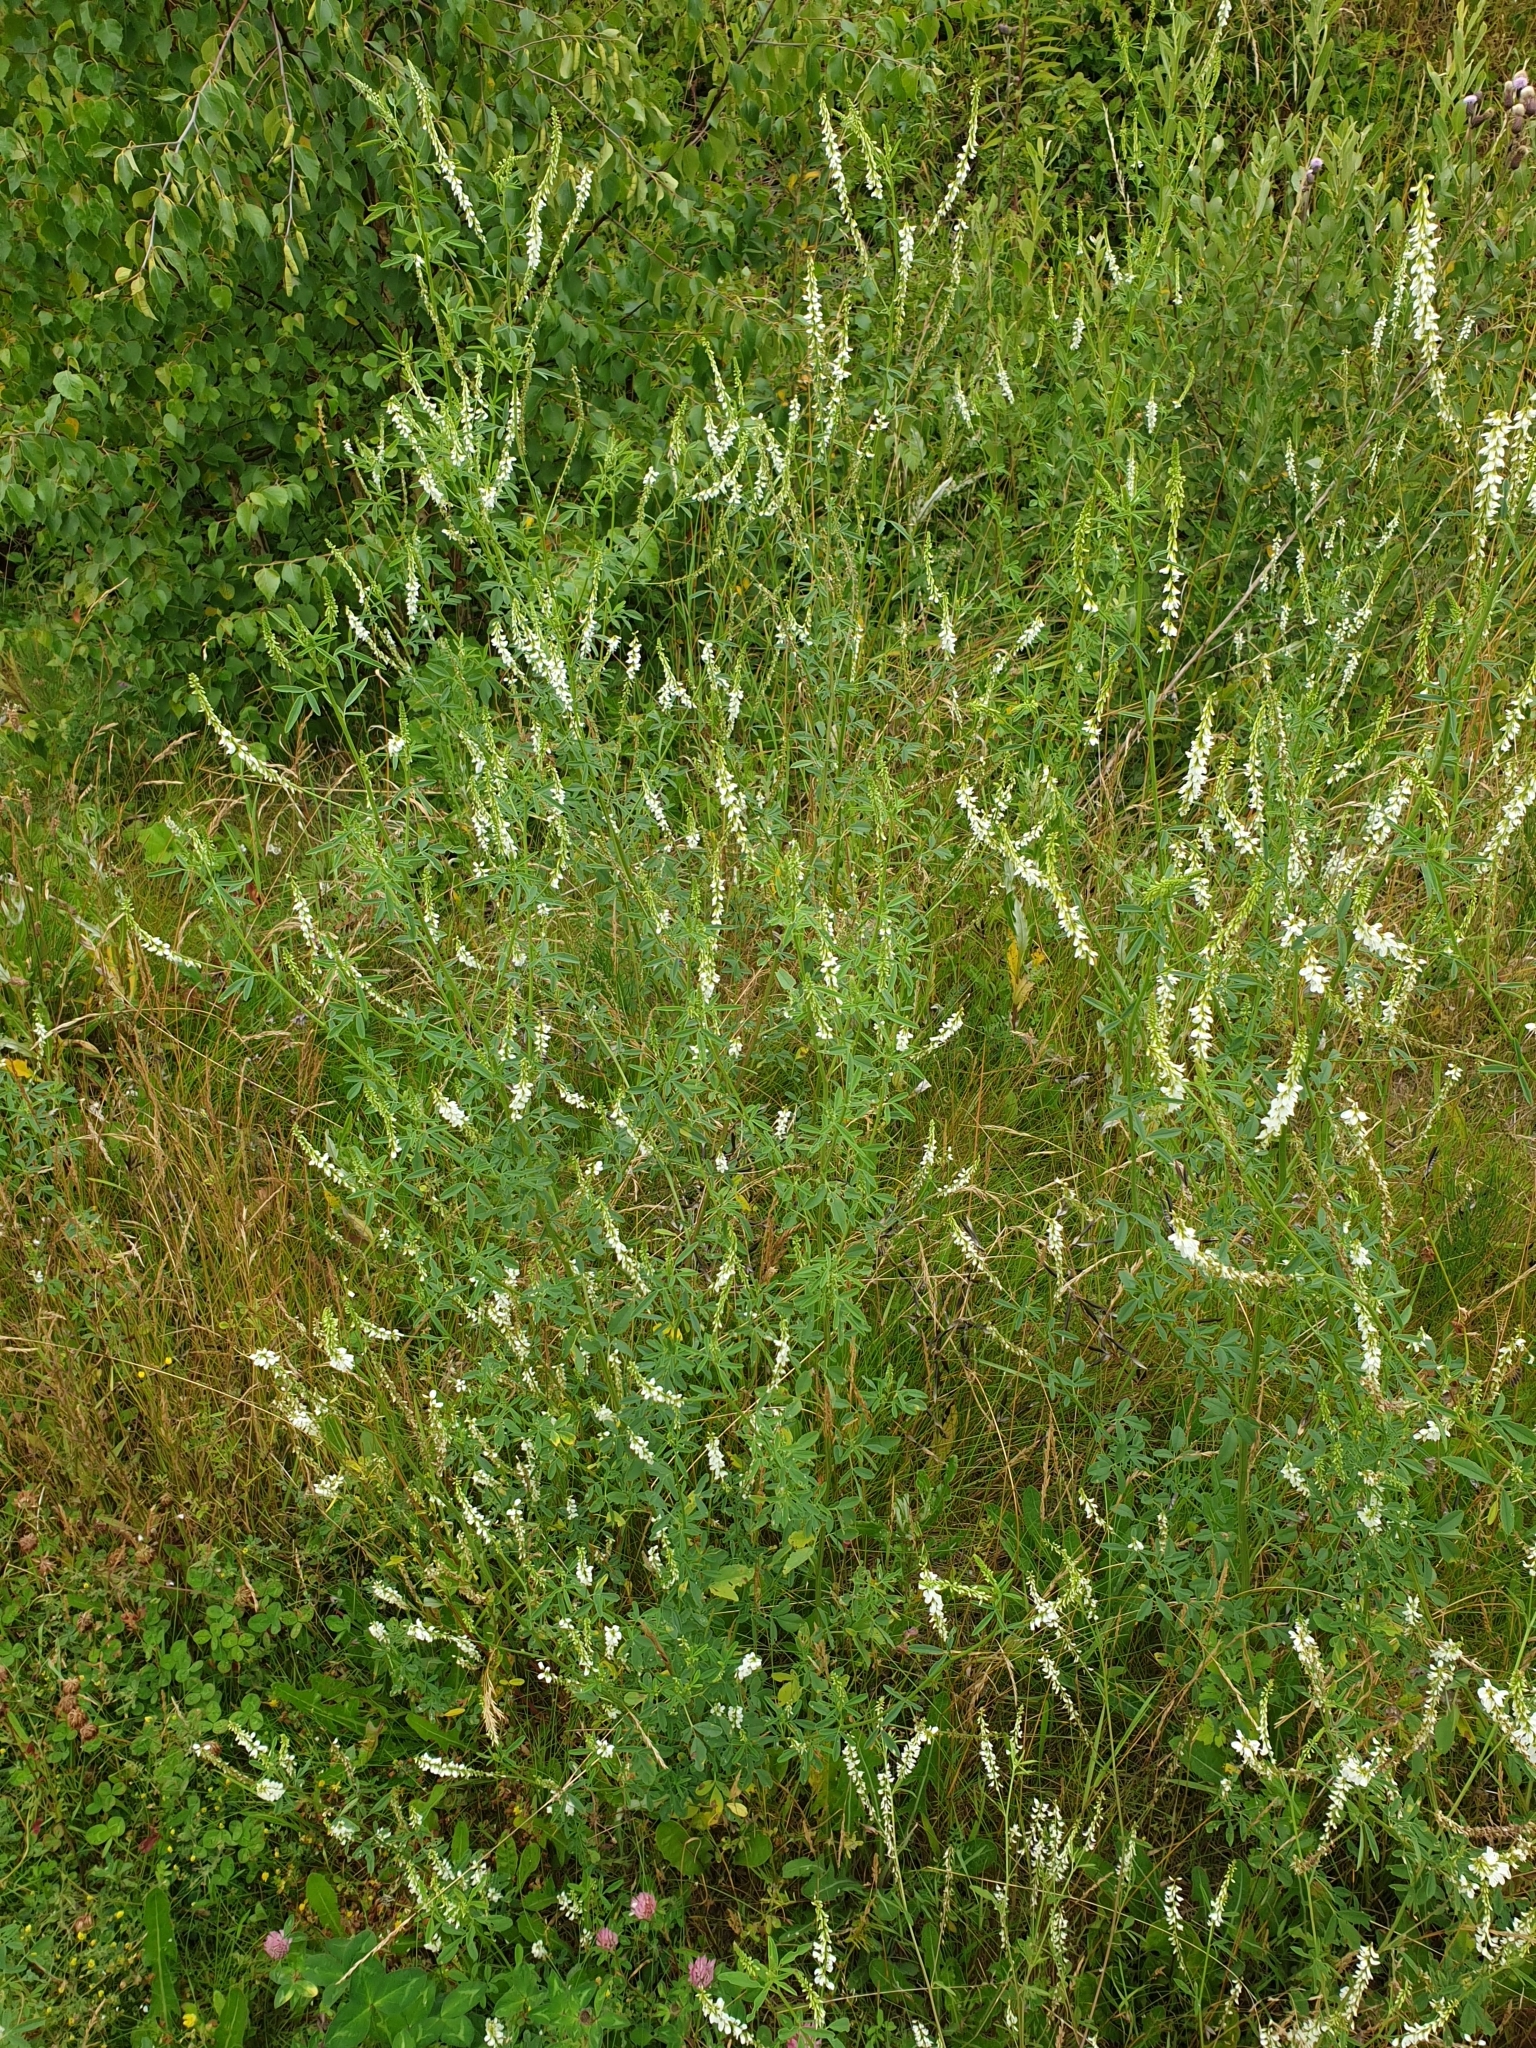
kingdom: Plantae
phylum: Tracheophyta
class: Magnoliopsida
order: Fabales
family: Fabaceae
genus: Melilotus
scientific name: Melilotus albus
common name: White melilot
